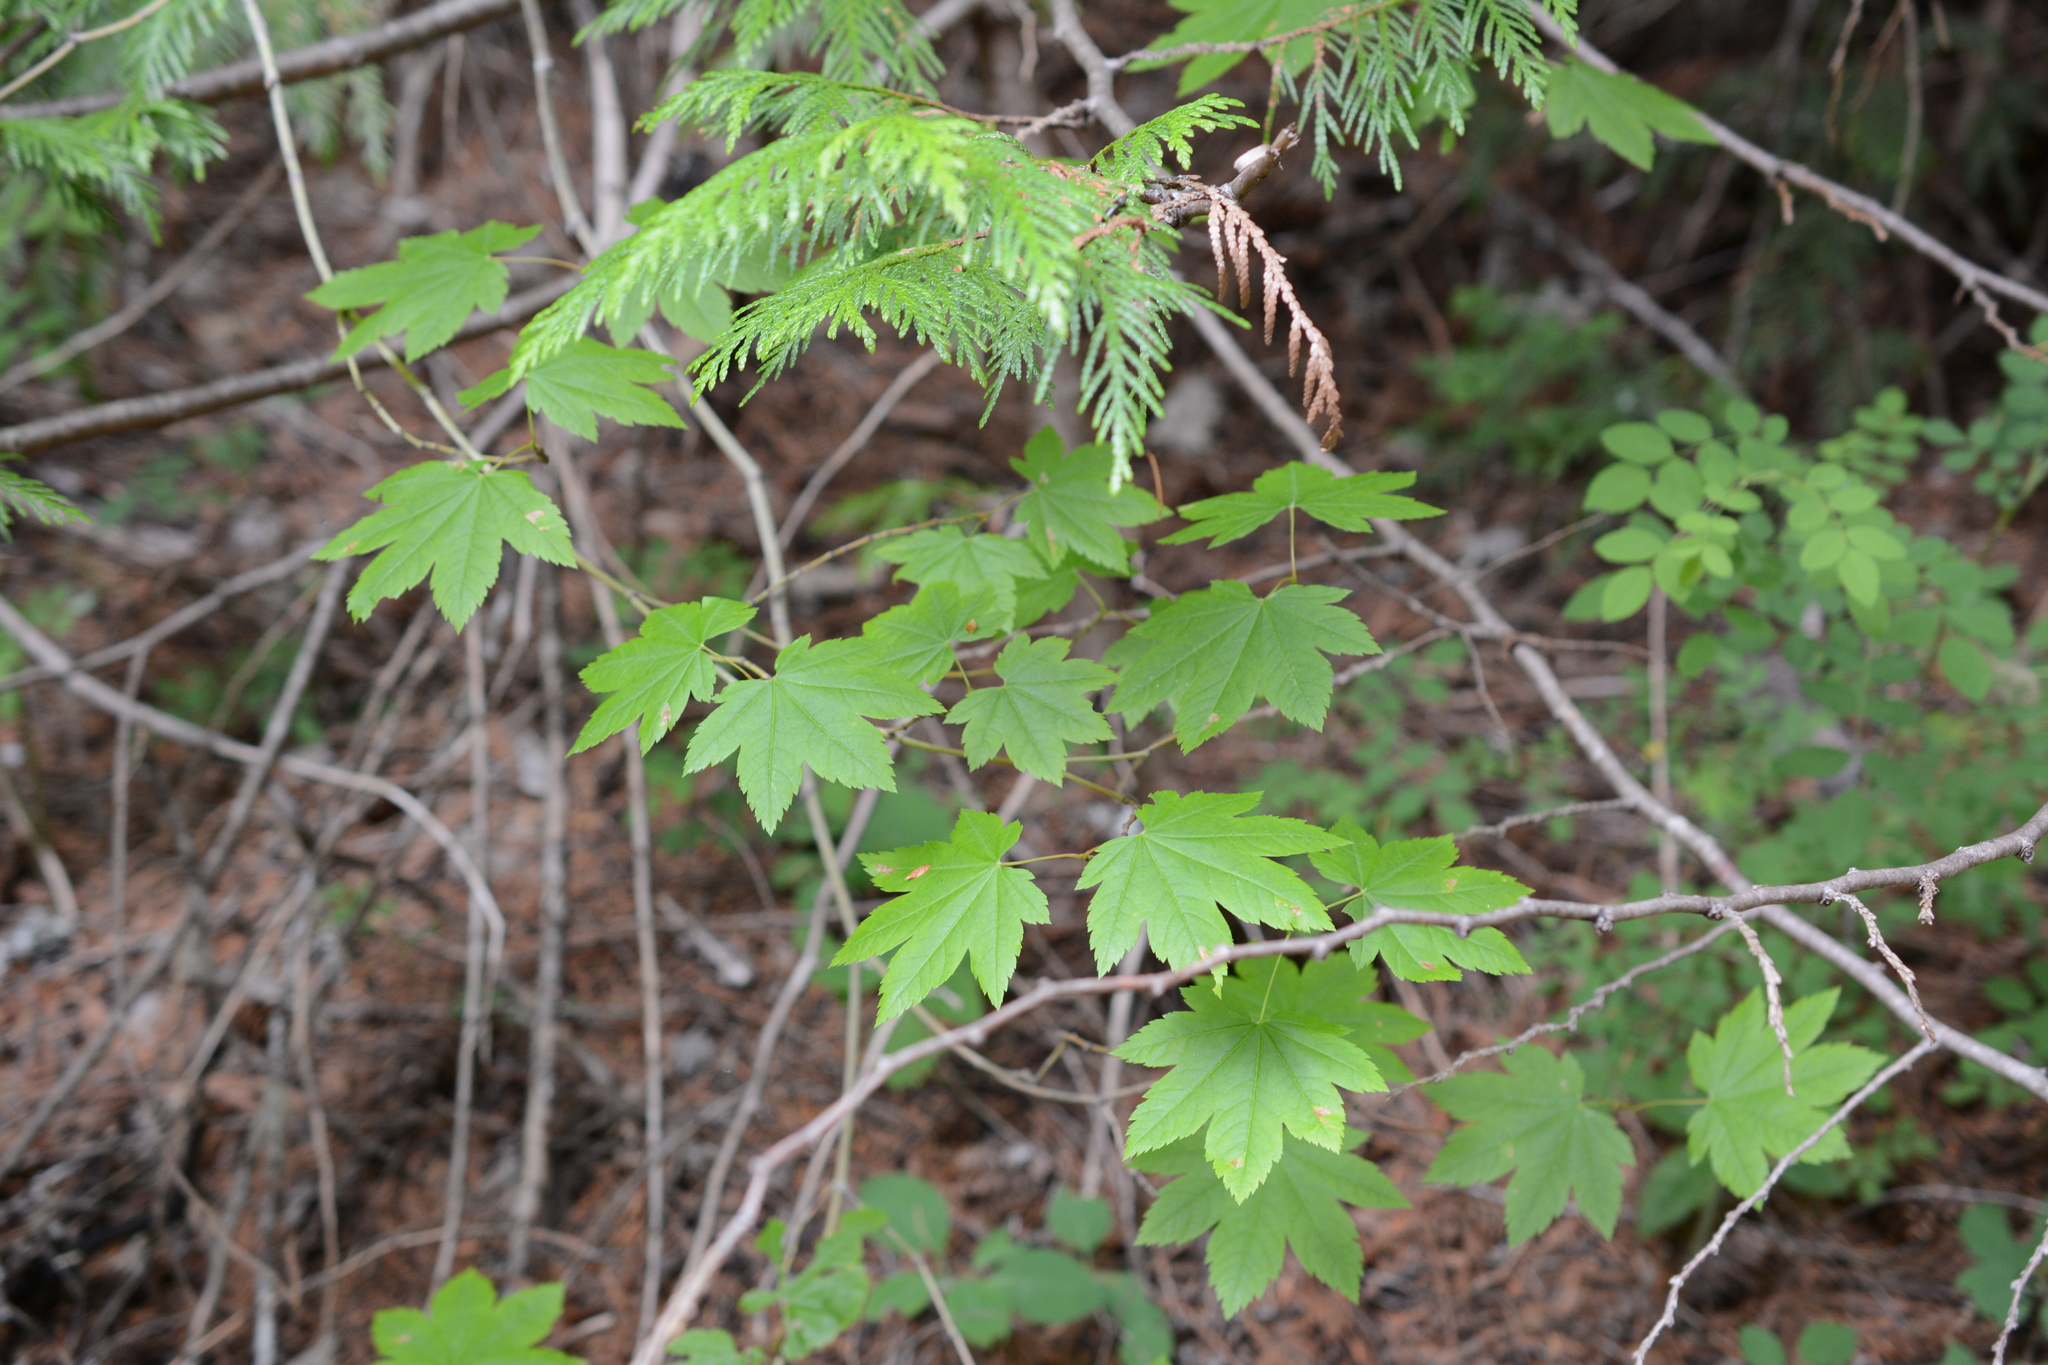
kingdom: Plantae
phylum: Tracheophyta
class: Magnoliopsida
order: Sapindales
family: Sapindaceae
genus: Acer
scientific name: Acer circinatum
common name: Vine maple
